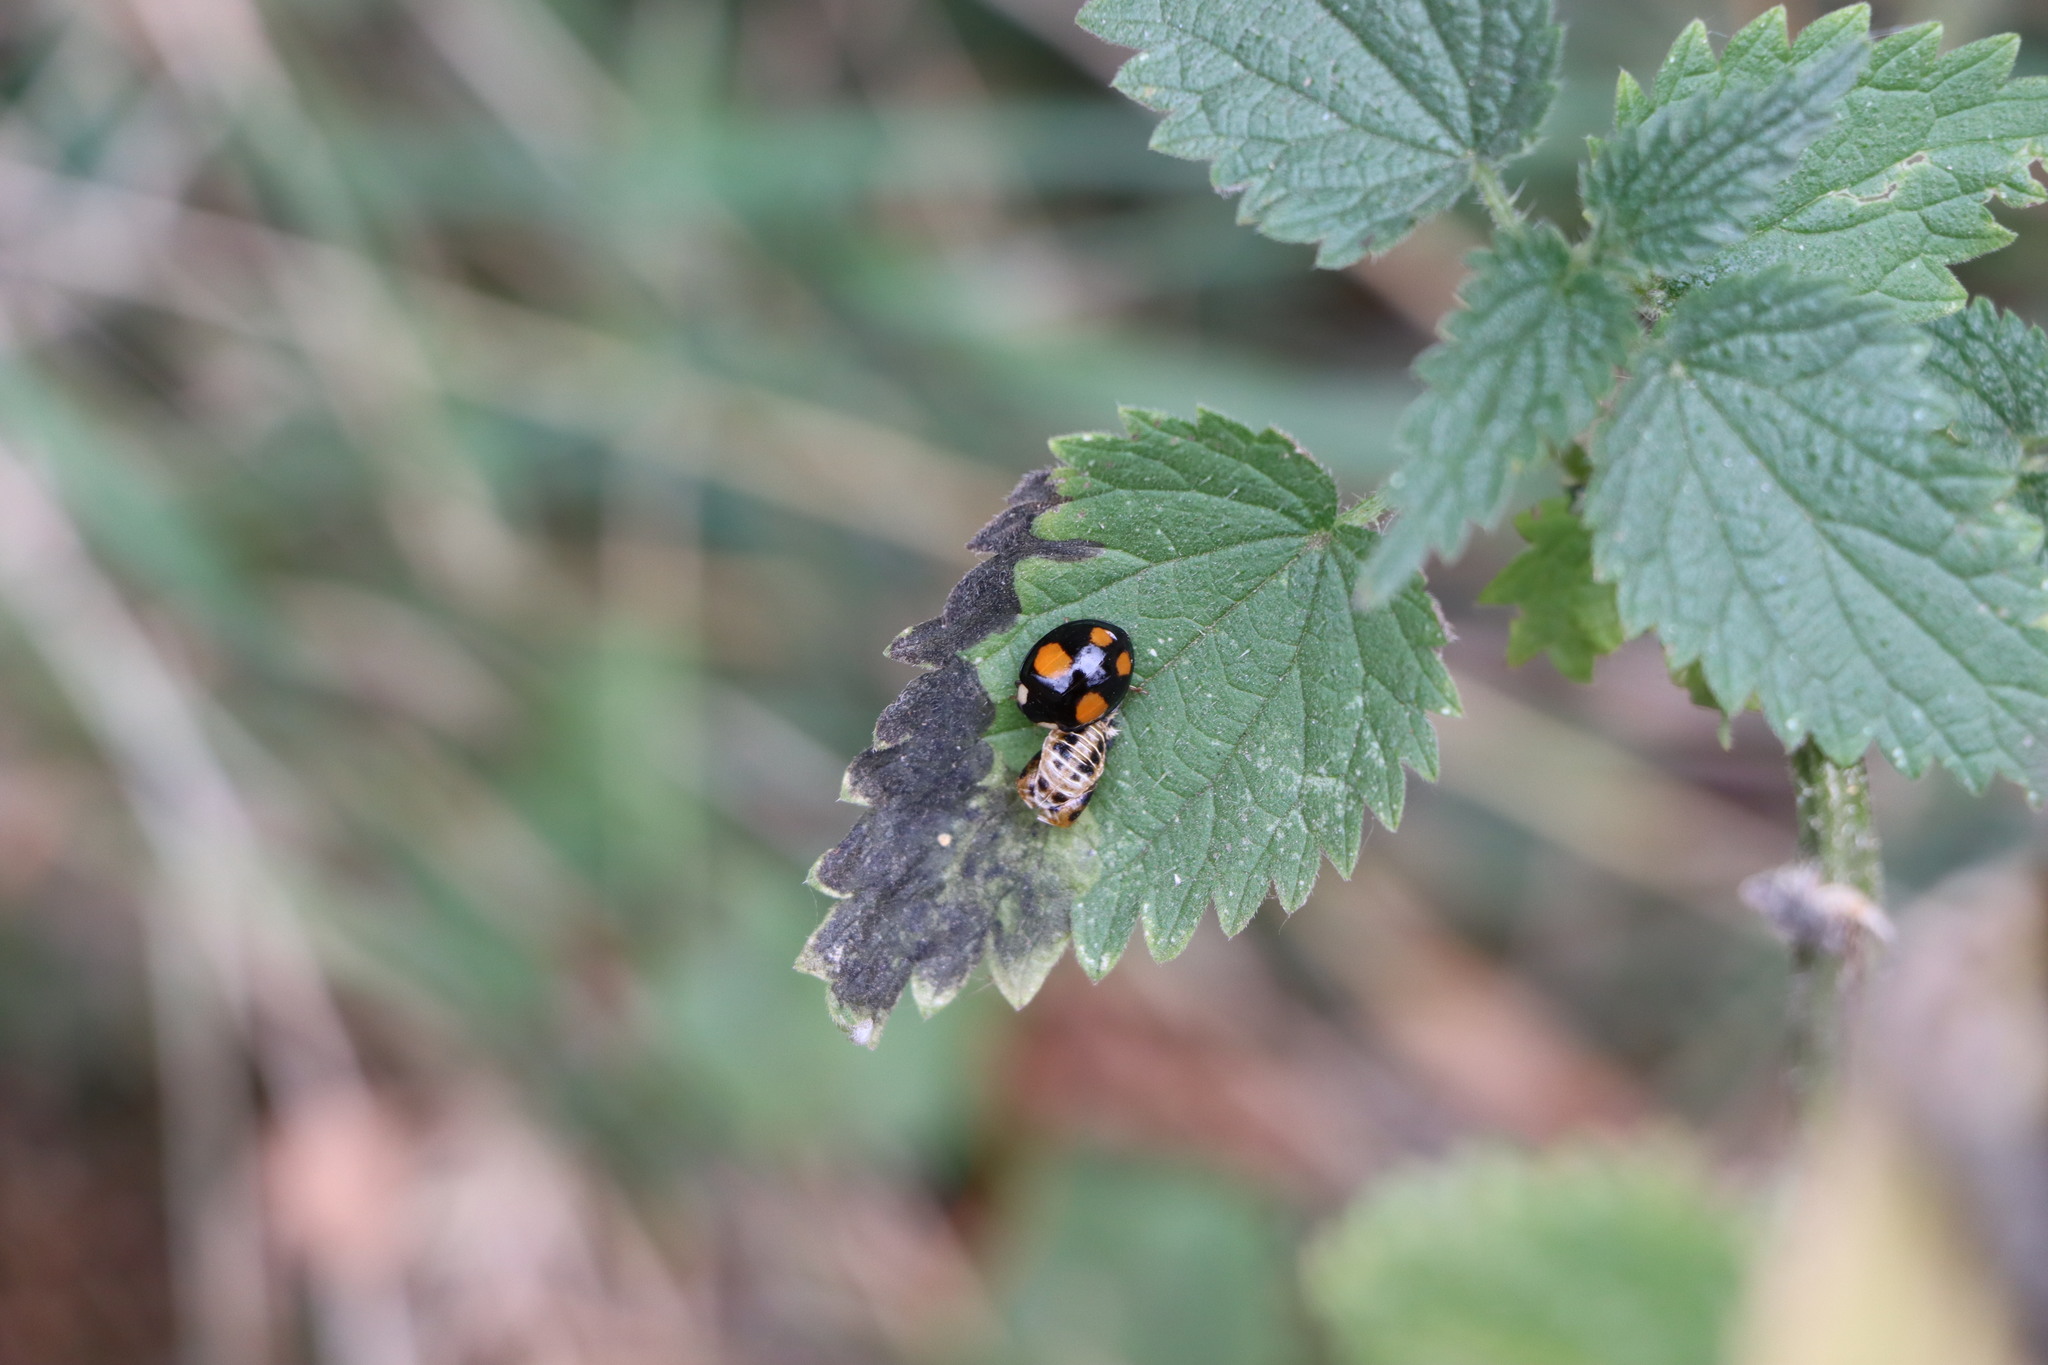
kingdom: Animalia
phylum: Arthropoda
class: Insecta
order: Coleoptera
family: Coccinellidae
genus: Harmonia
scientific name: Harmonia axyridis
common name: Harlequin ladybird
